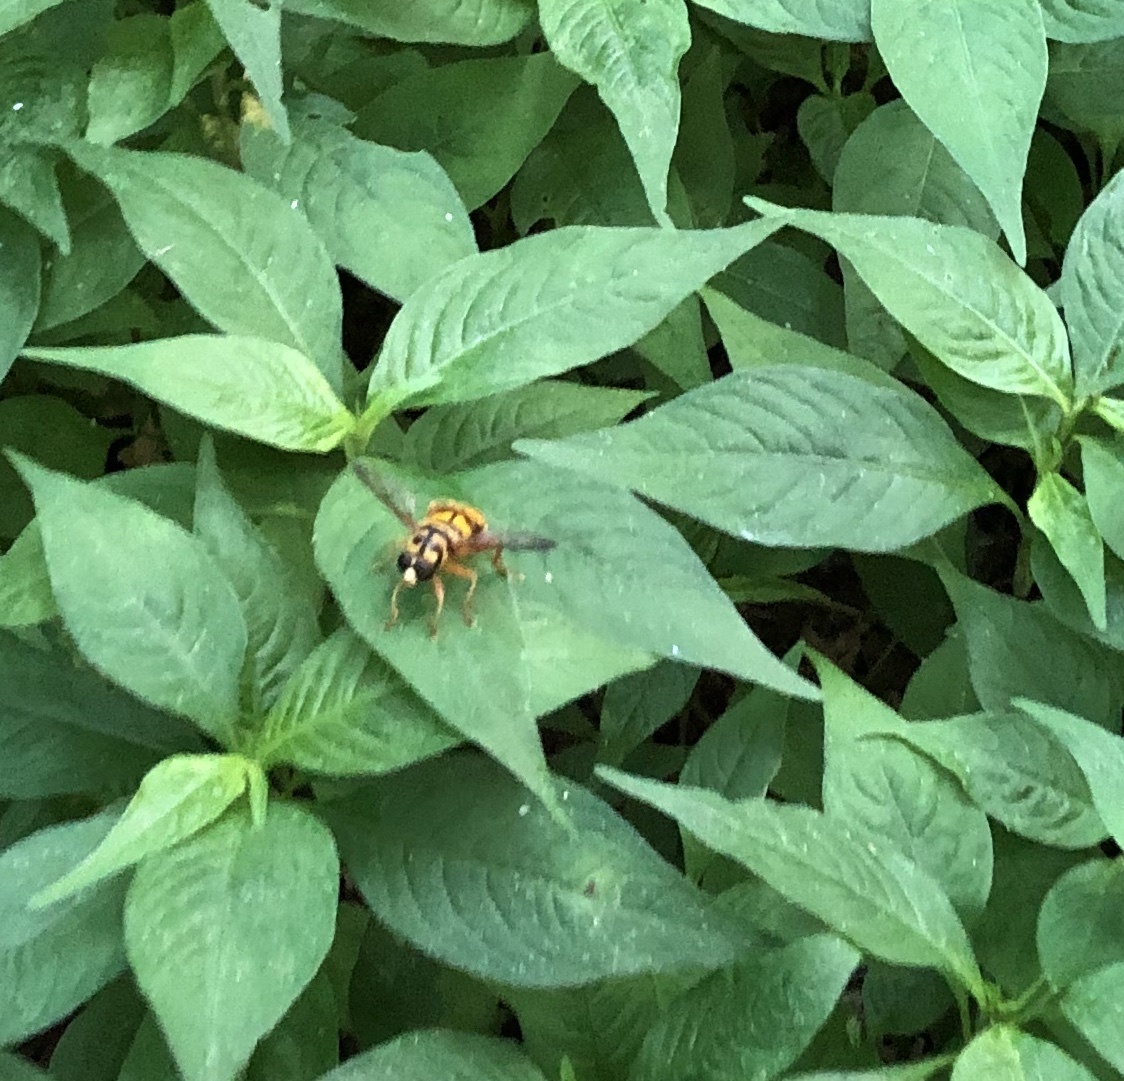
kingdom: Animalia
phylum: Arthropoda
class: Insecta
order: Diptera
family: Syrphidae
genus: Milesia
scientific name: Milesia virginiensis
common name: Virginia giant
